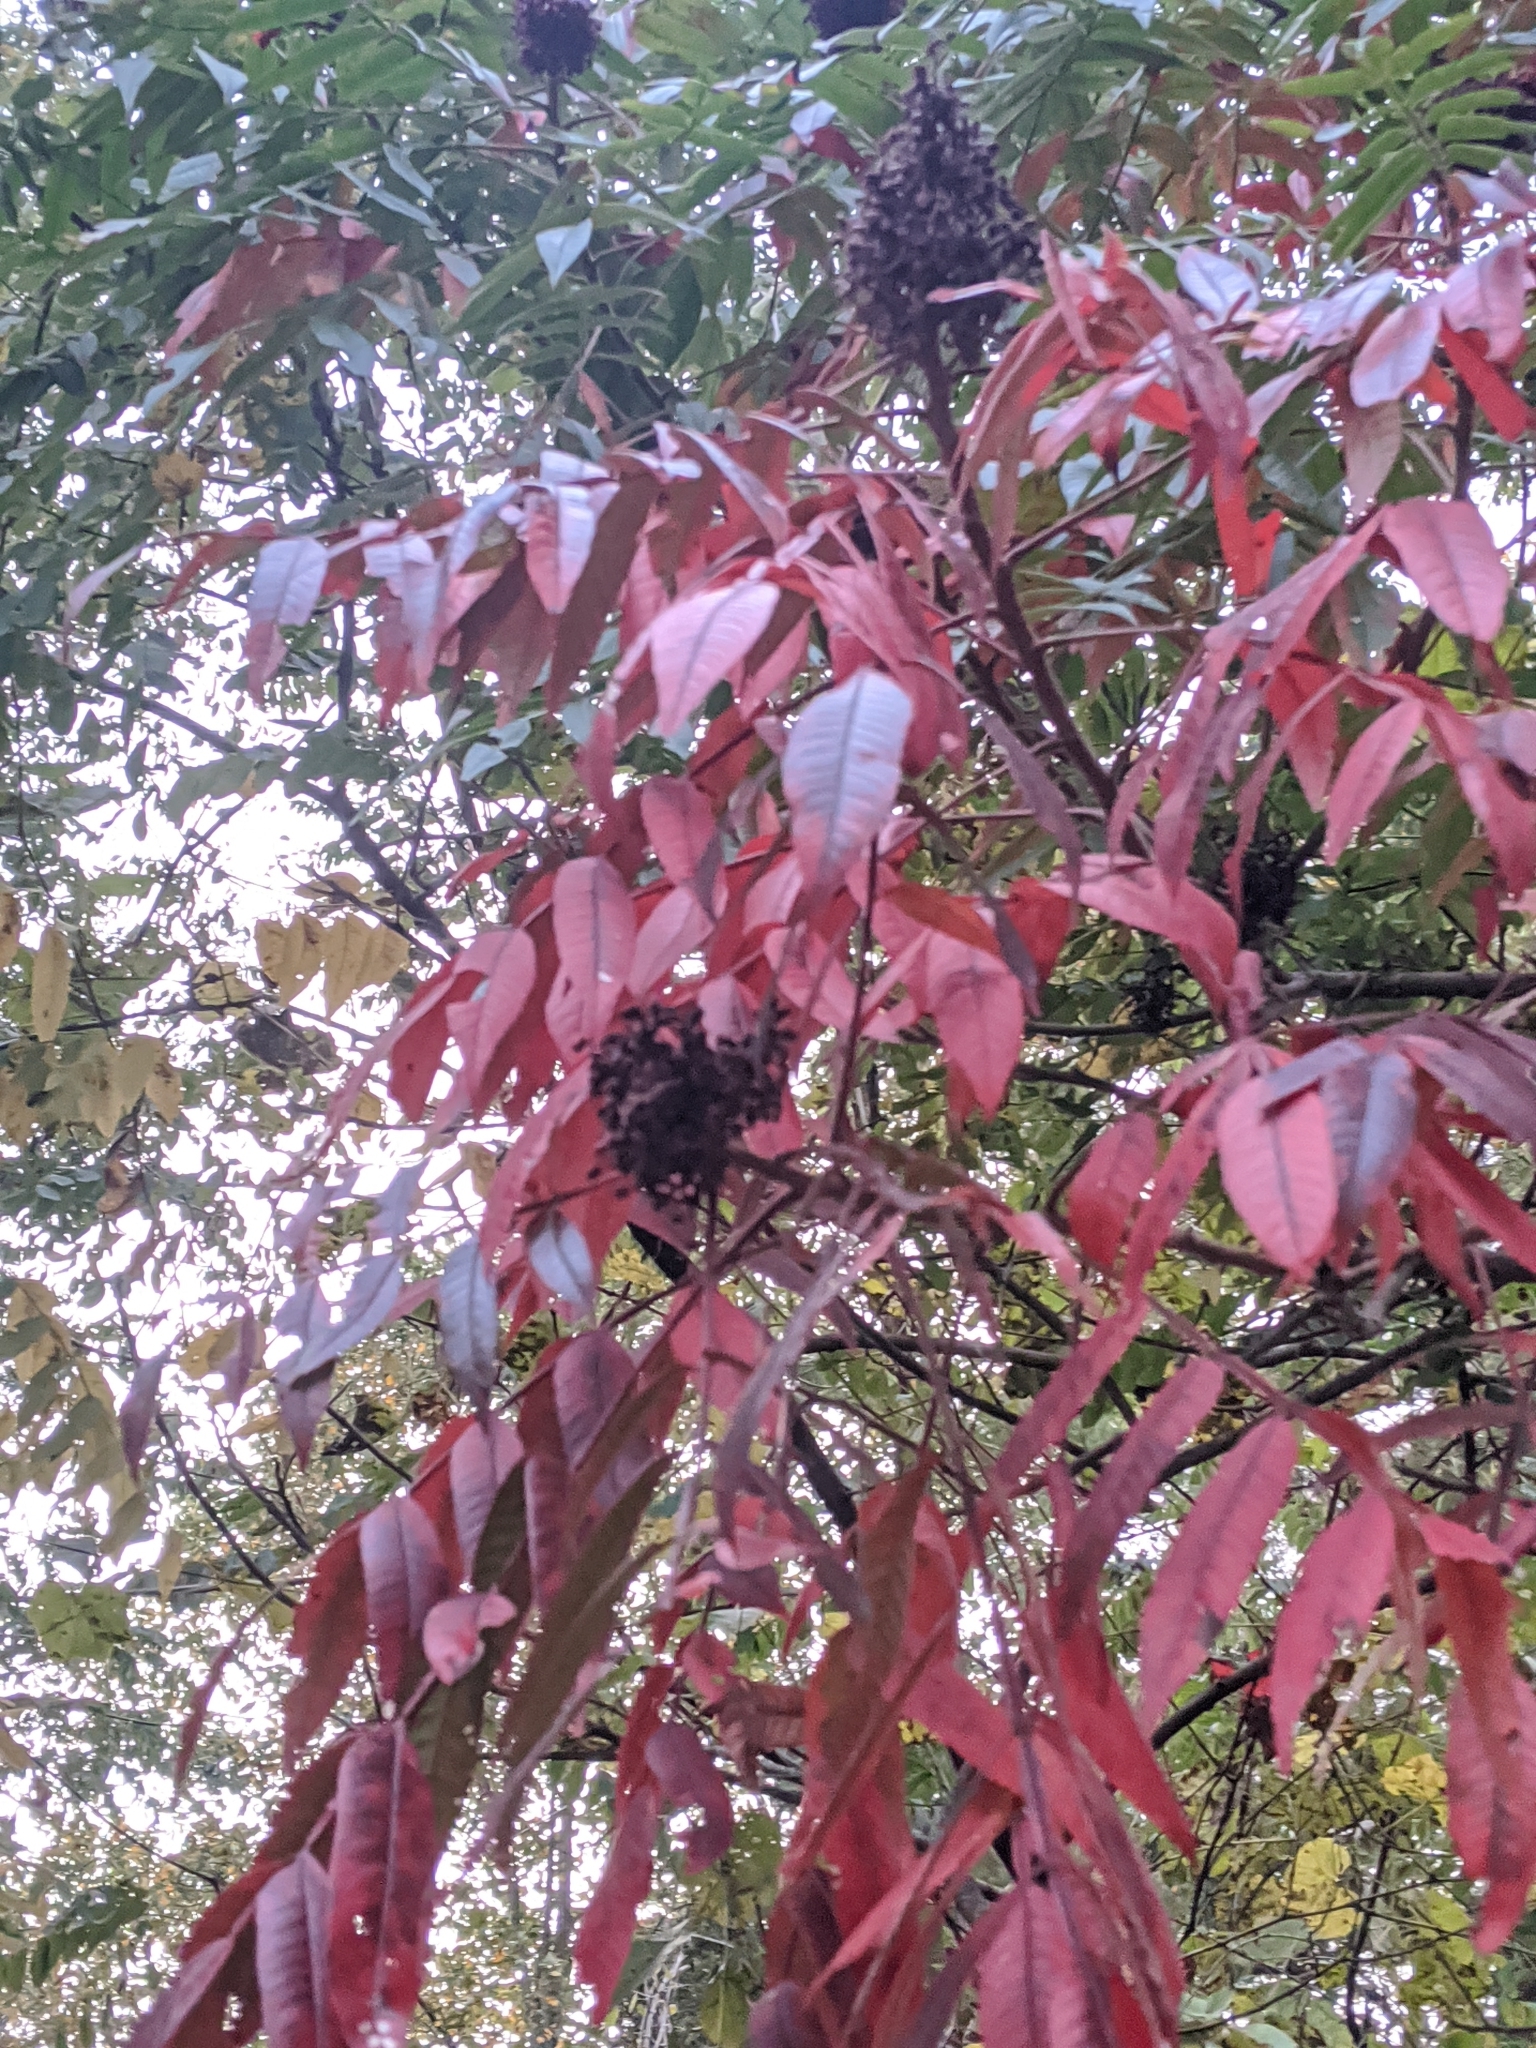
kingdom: Plantae
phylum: Tracheophyta
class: Magnoliopsida
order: Sapindales
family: Anacardiaceae
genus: Rhus
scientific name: Rhus copallina
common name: Shining sumac
